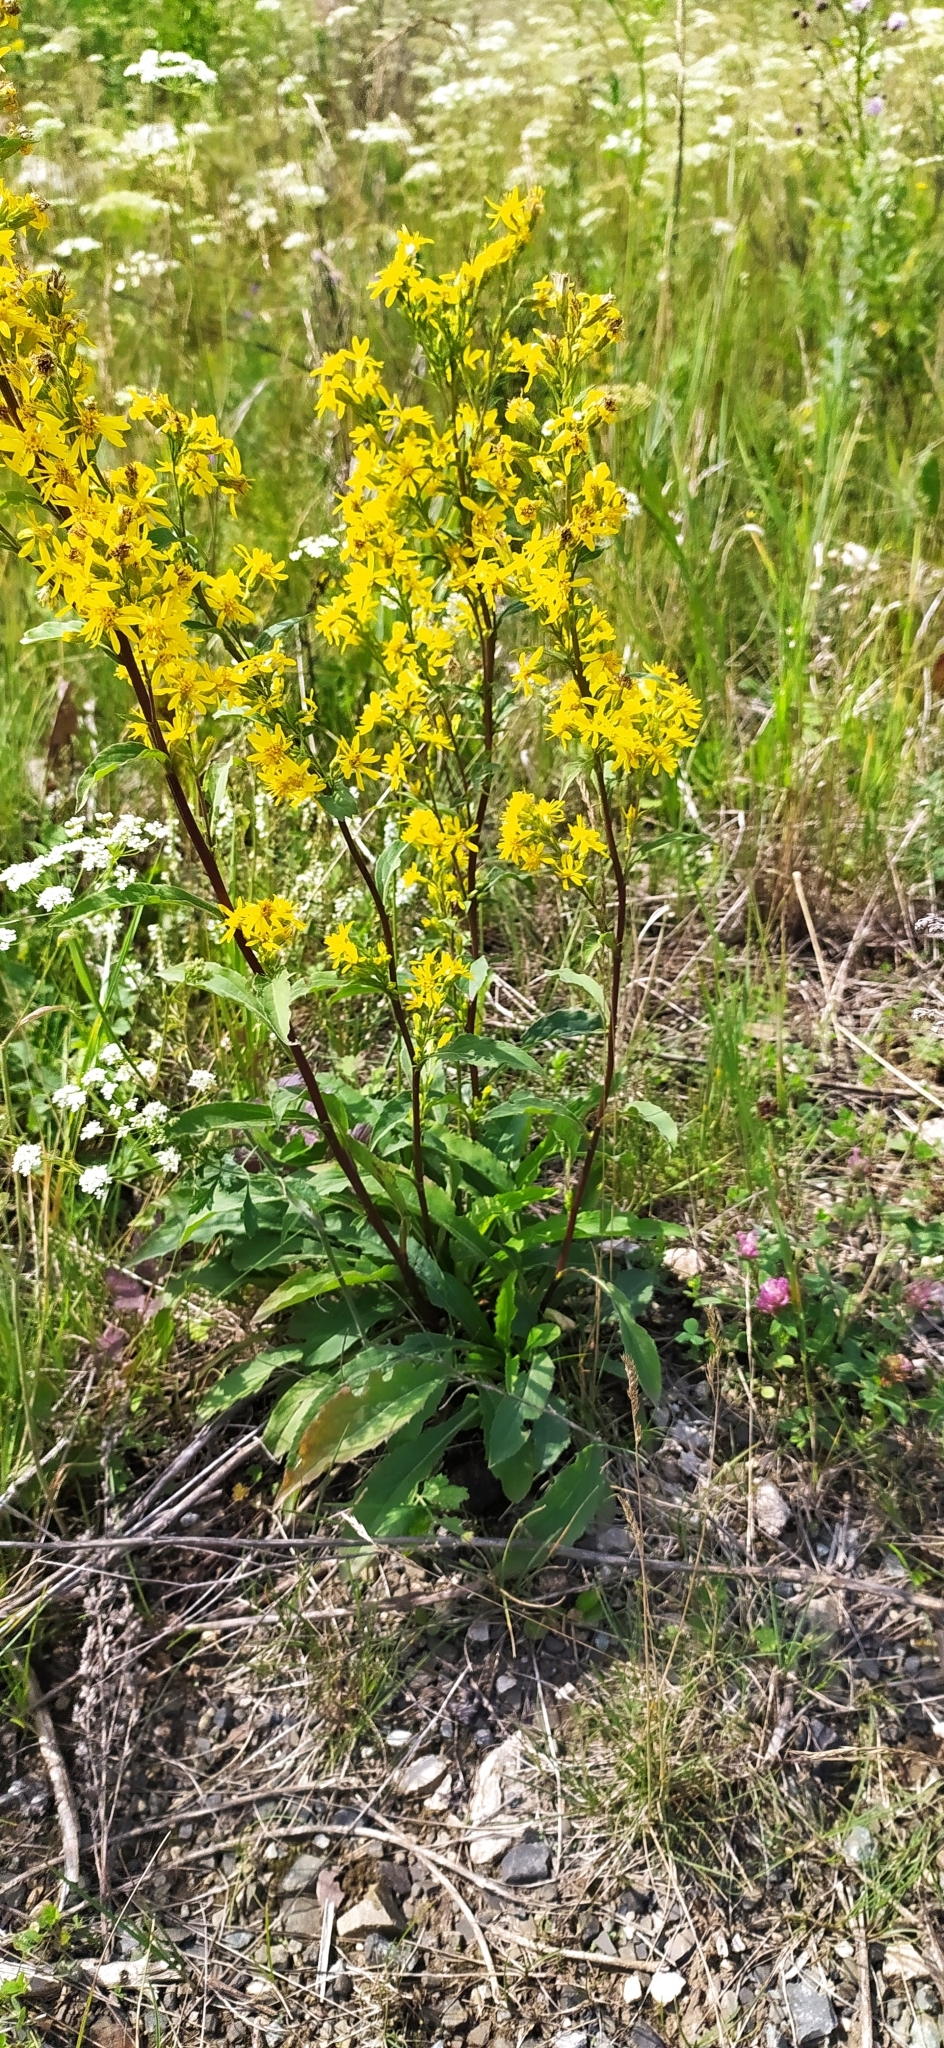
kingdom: Plantae
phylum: Tracheophyta
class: Magnoliopsida
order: Asterales
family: Asteraceae
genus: Solidago
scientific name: Solidago virgaurea
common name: Goldenrod
